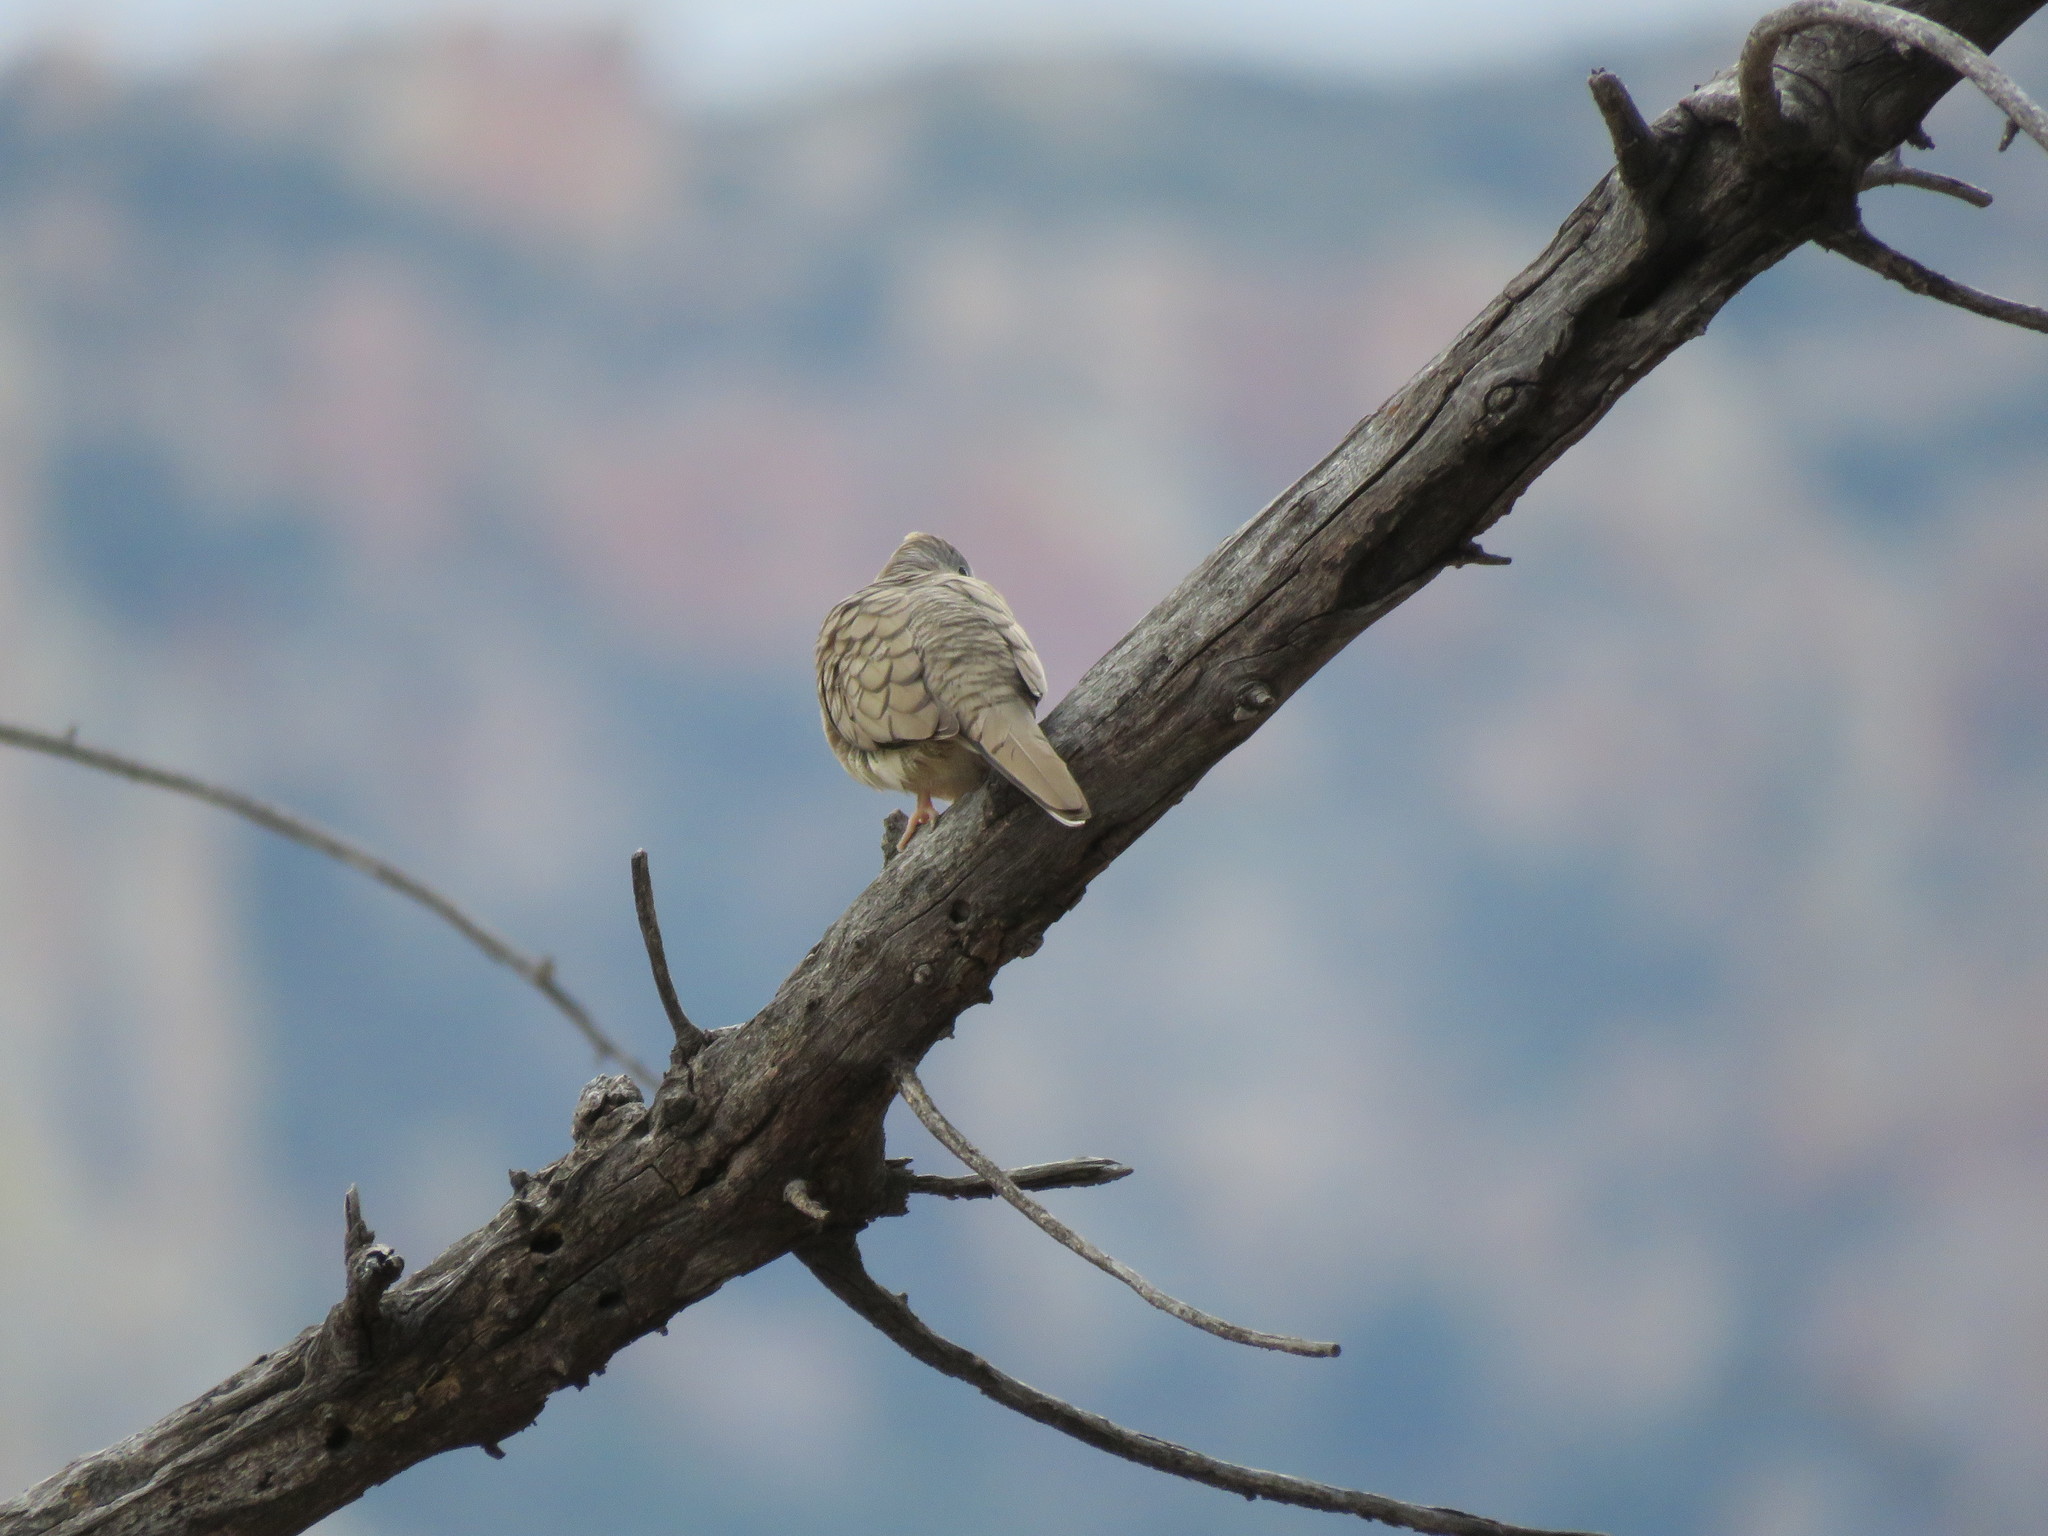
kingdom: Animalia
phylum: Chordata
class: Aves
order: Columbiformes
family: Columbidae
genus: Columbina
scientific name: Columbina inca
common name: Inca dove
